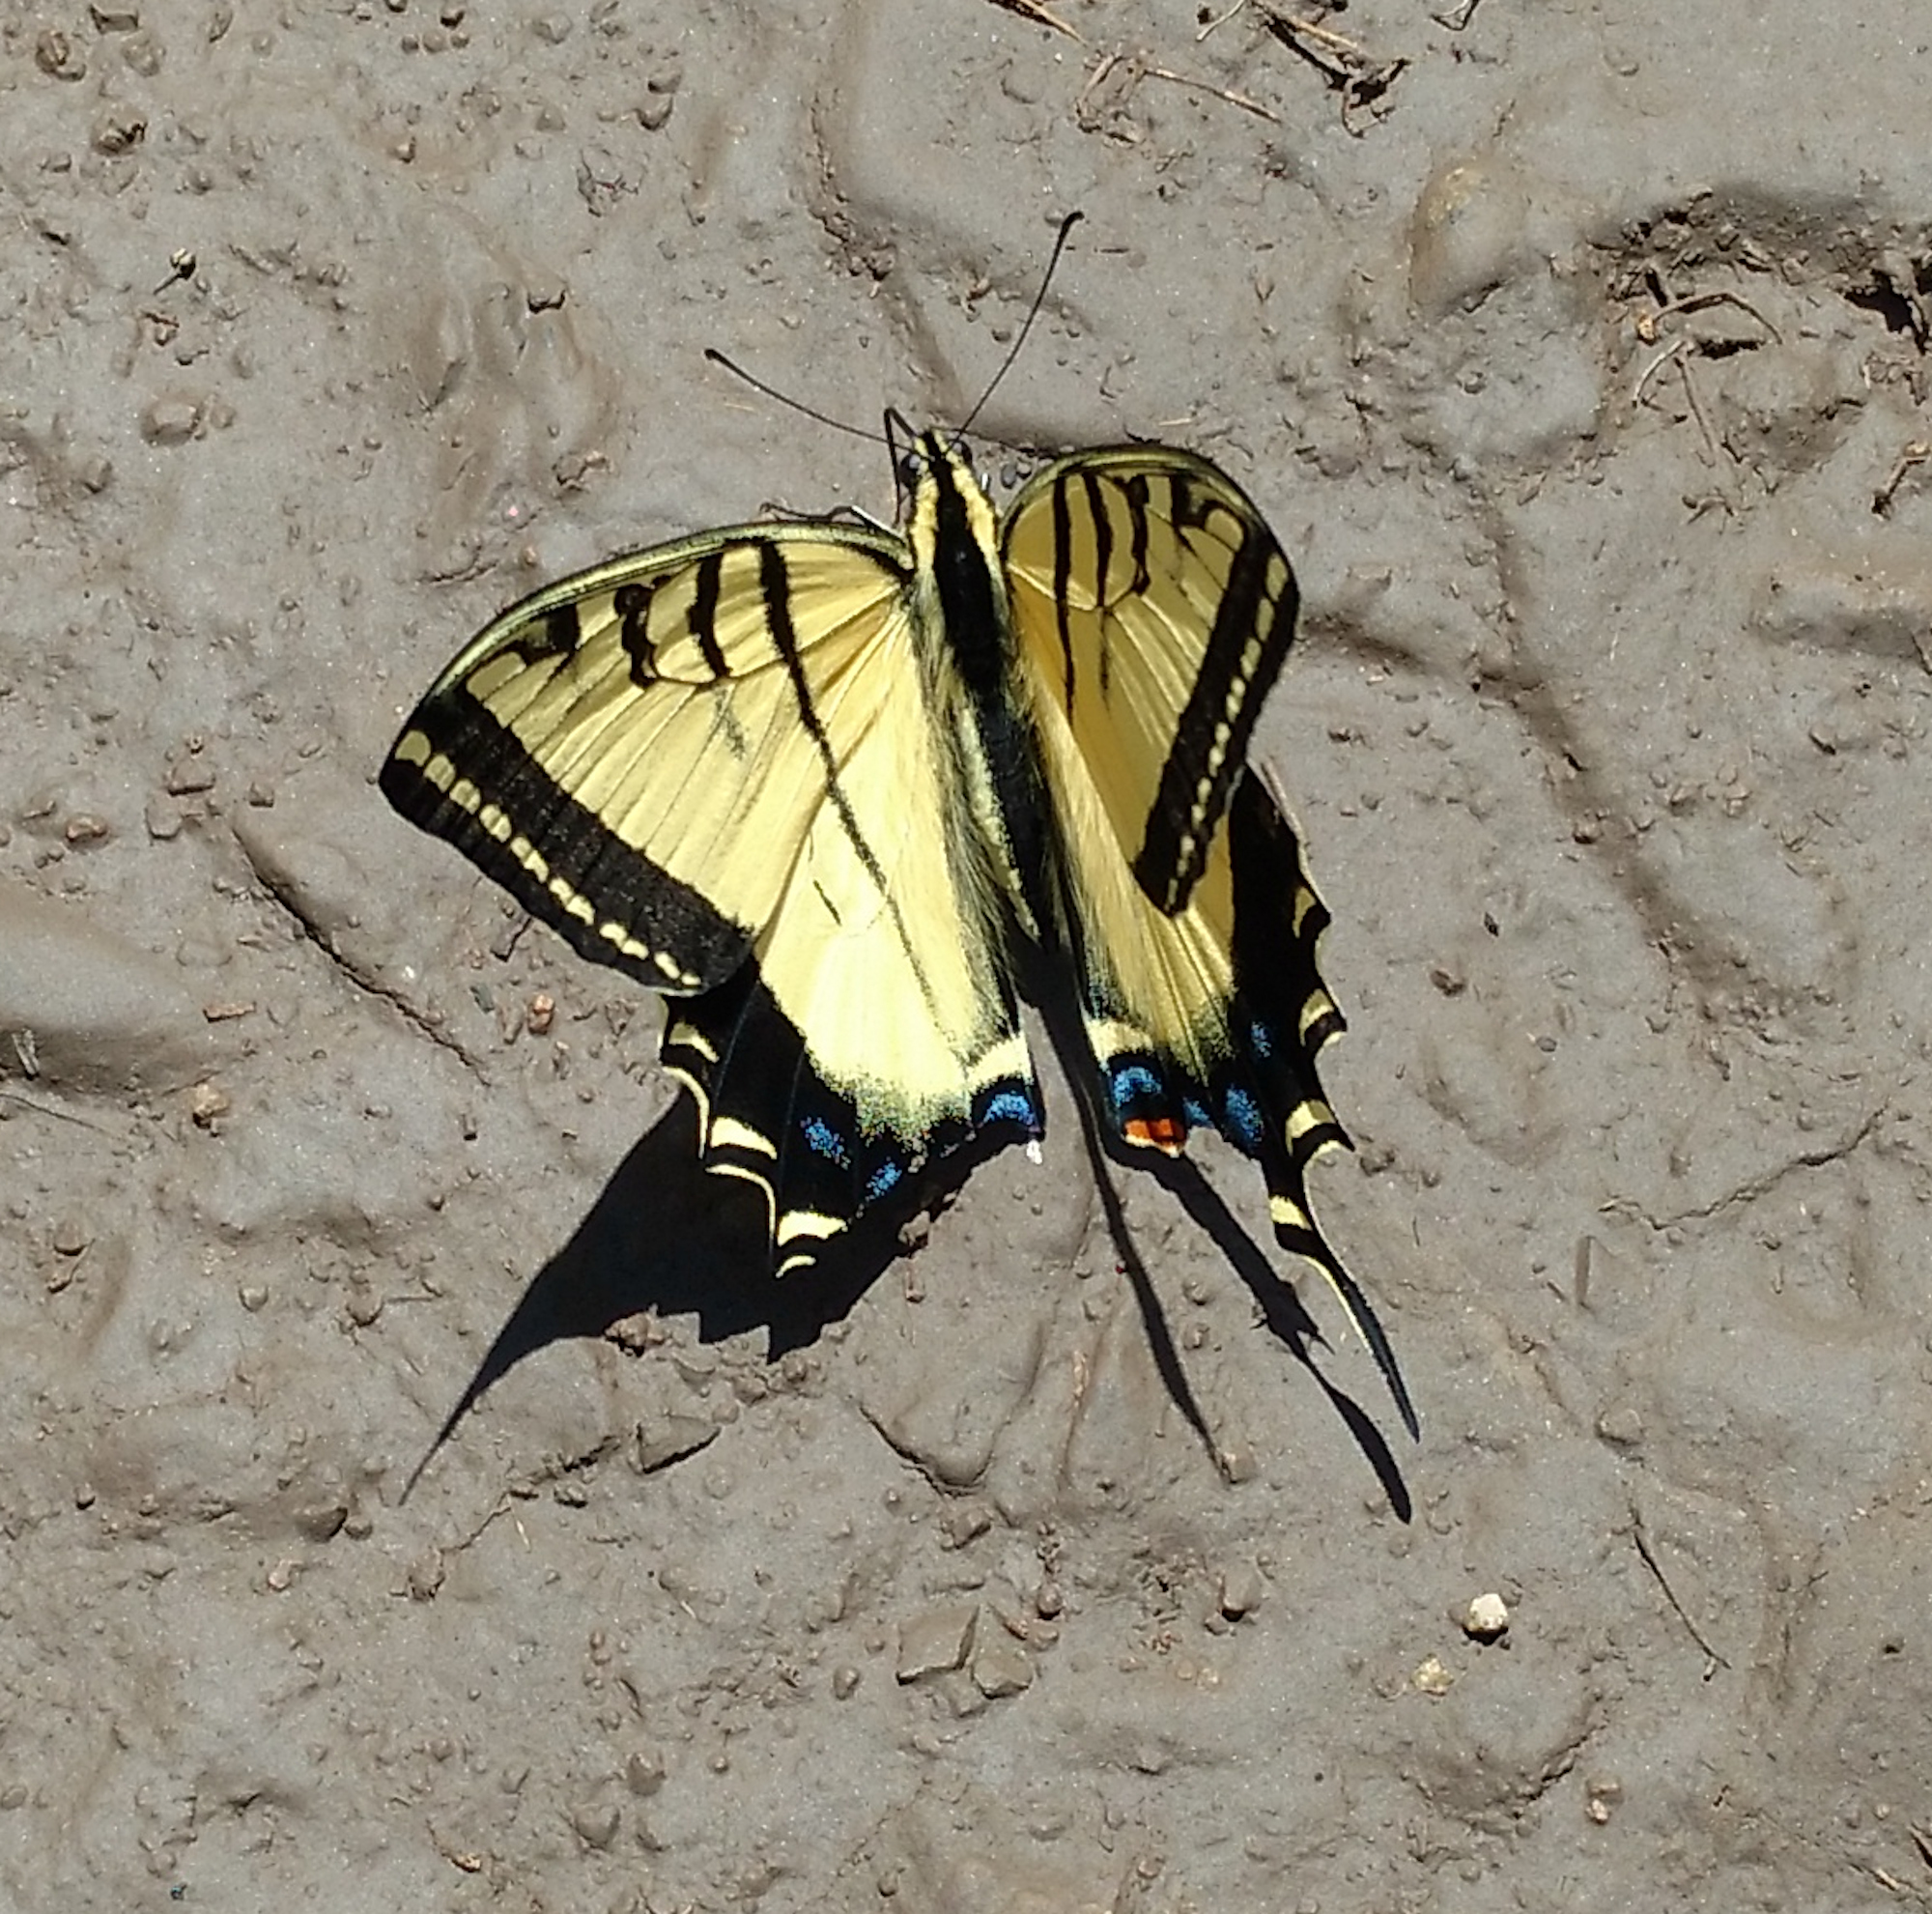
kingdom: Animalia
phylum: Arthropoda
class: Insecta
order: Lepidoptera
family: Papilionidae
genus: Papilio
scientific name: Papilio multicaudata
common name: Two-tailed tiger swallowtail
